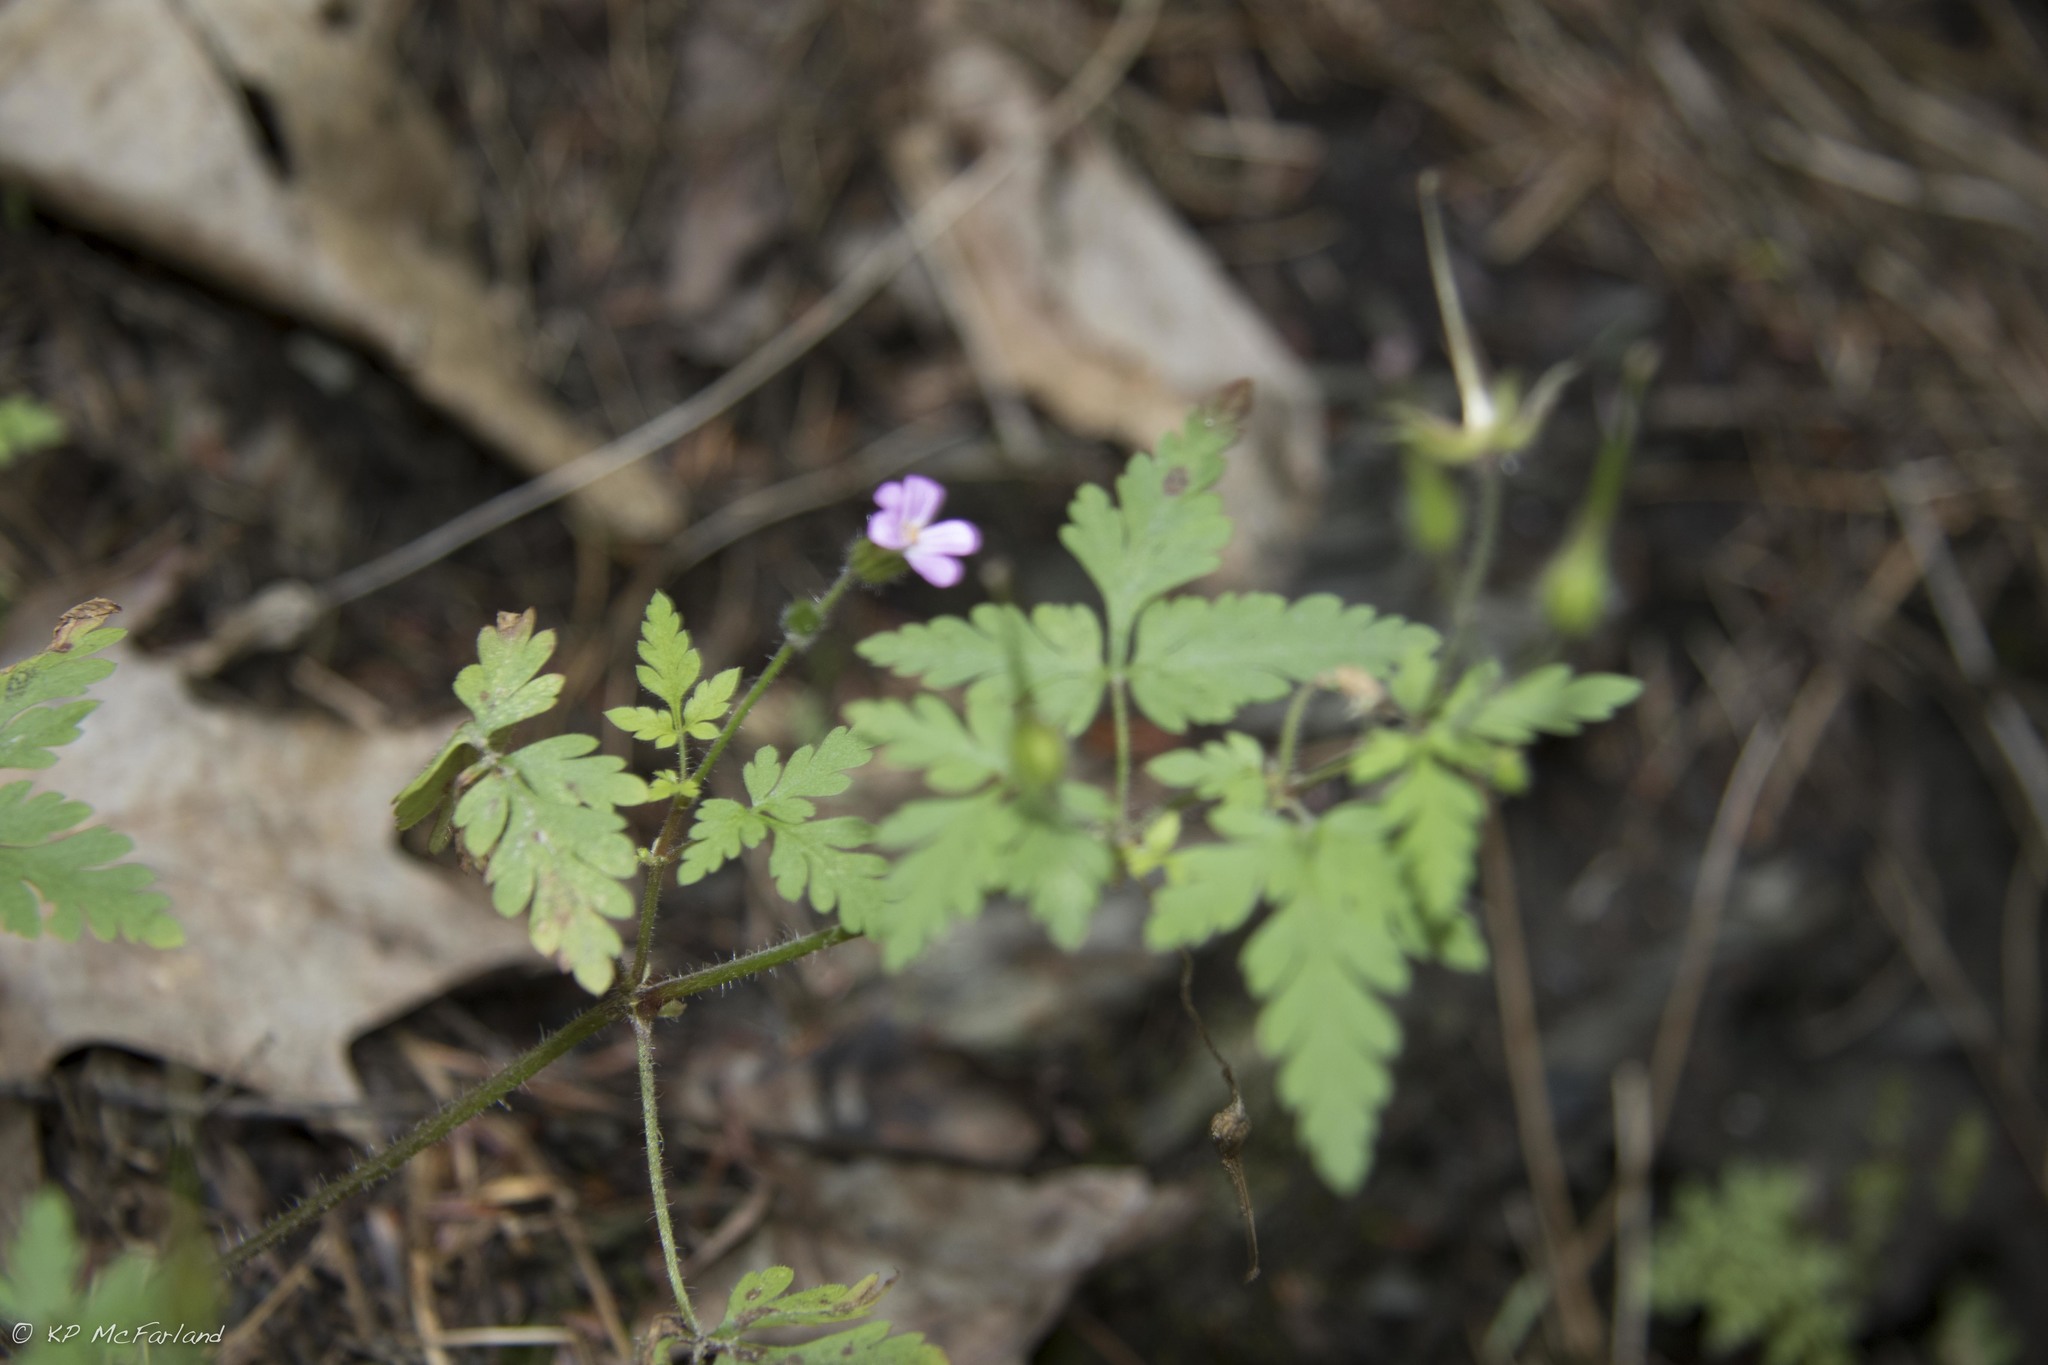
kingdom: Plantae
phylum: Tracheophyta
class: Magnoliopsida
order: Geraniales
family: Geraniaceae
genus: Geranium
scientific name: Geranium robertianum
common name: Herb-robert
